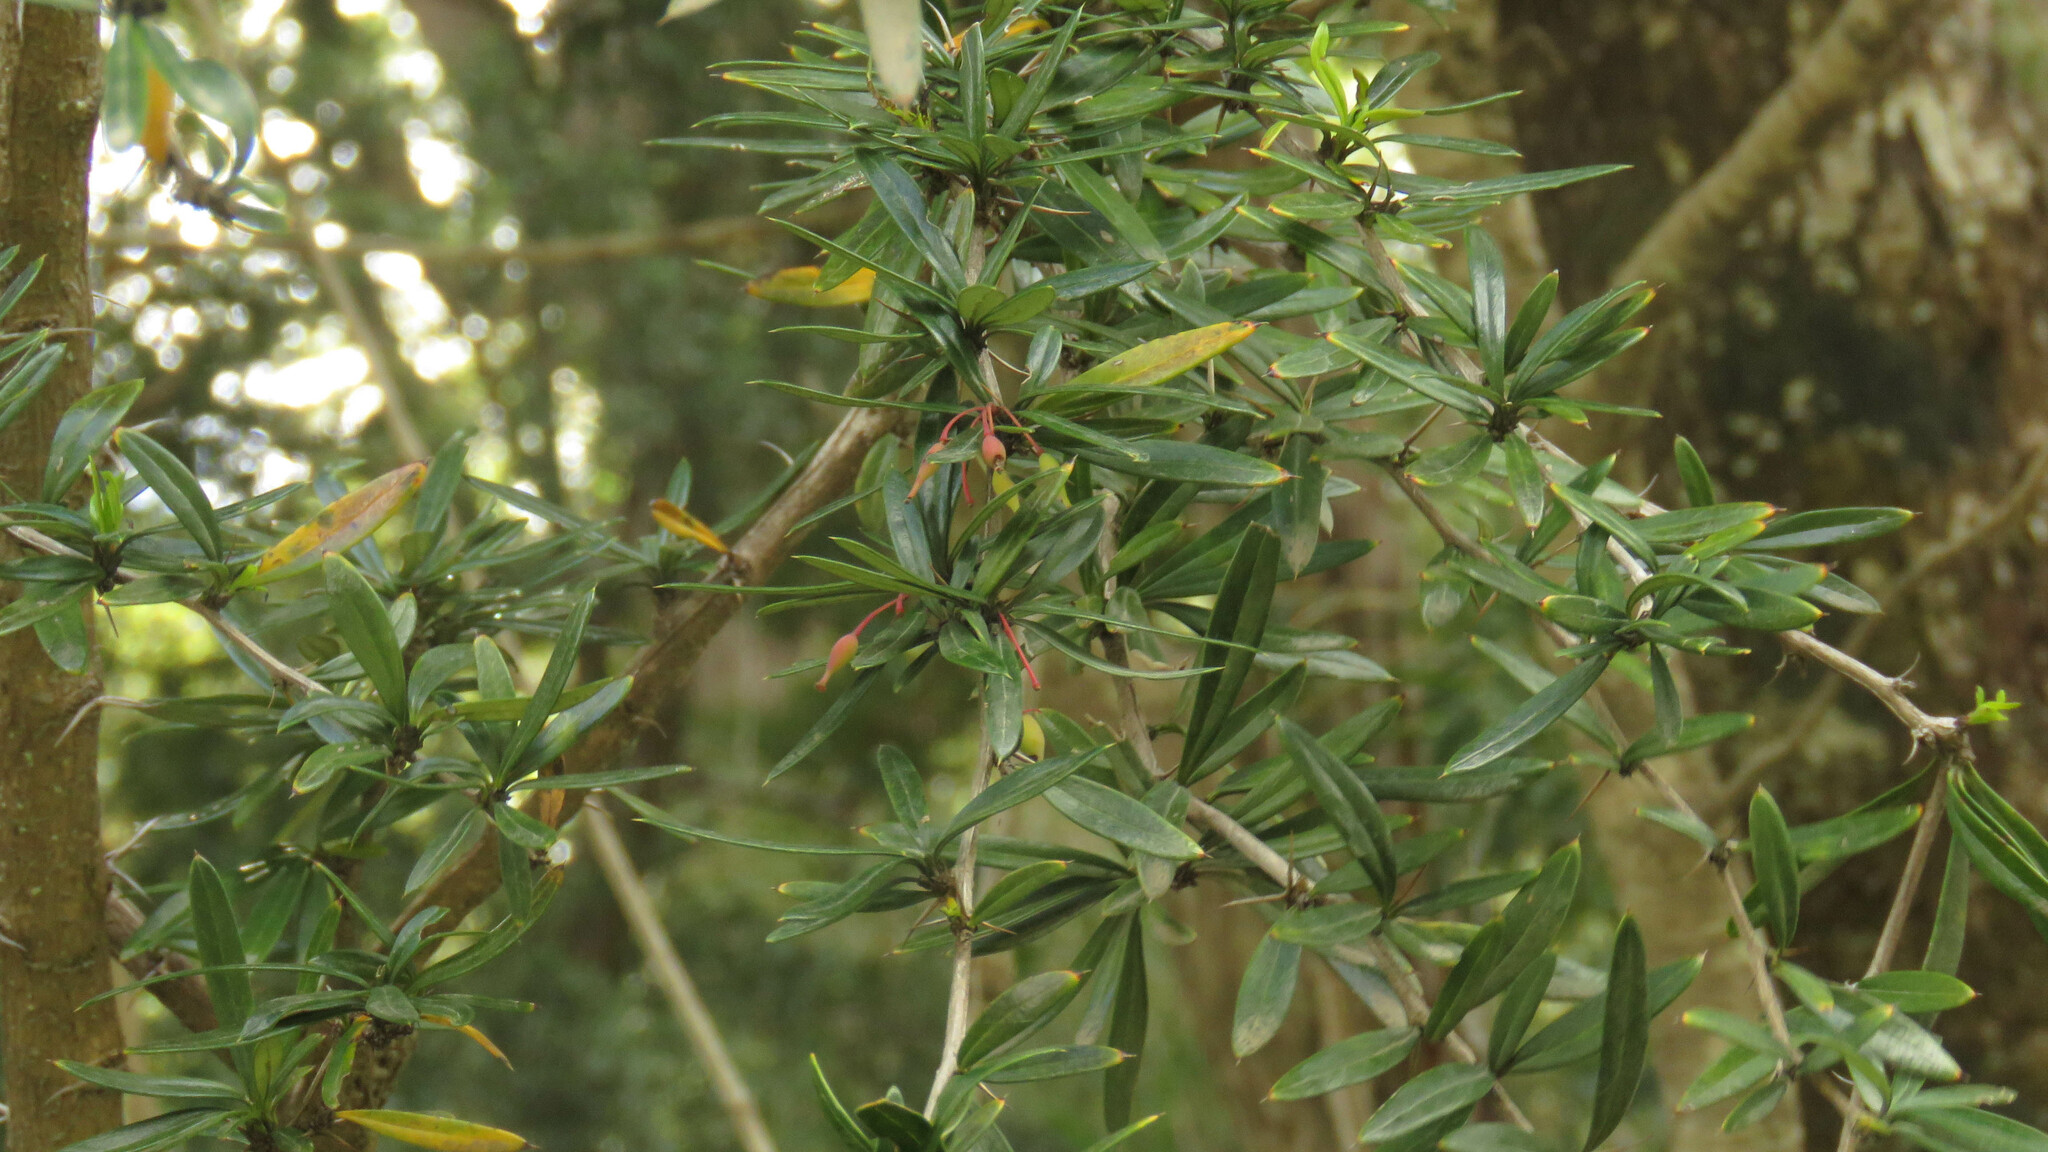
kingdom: Plantae
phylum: Tracheophyta
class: Magnoliopsida
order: Ranunculales
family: Berberidaceae
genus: Berberis
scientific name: Berberis trigona
